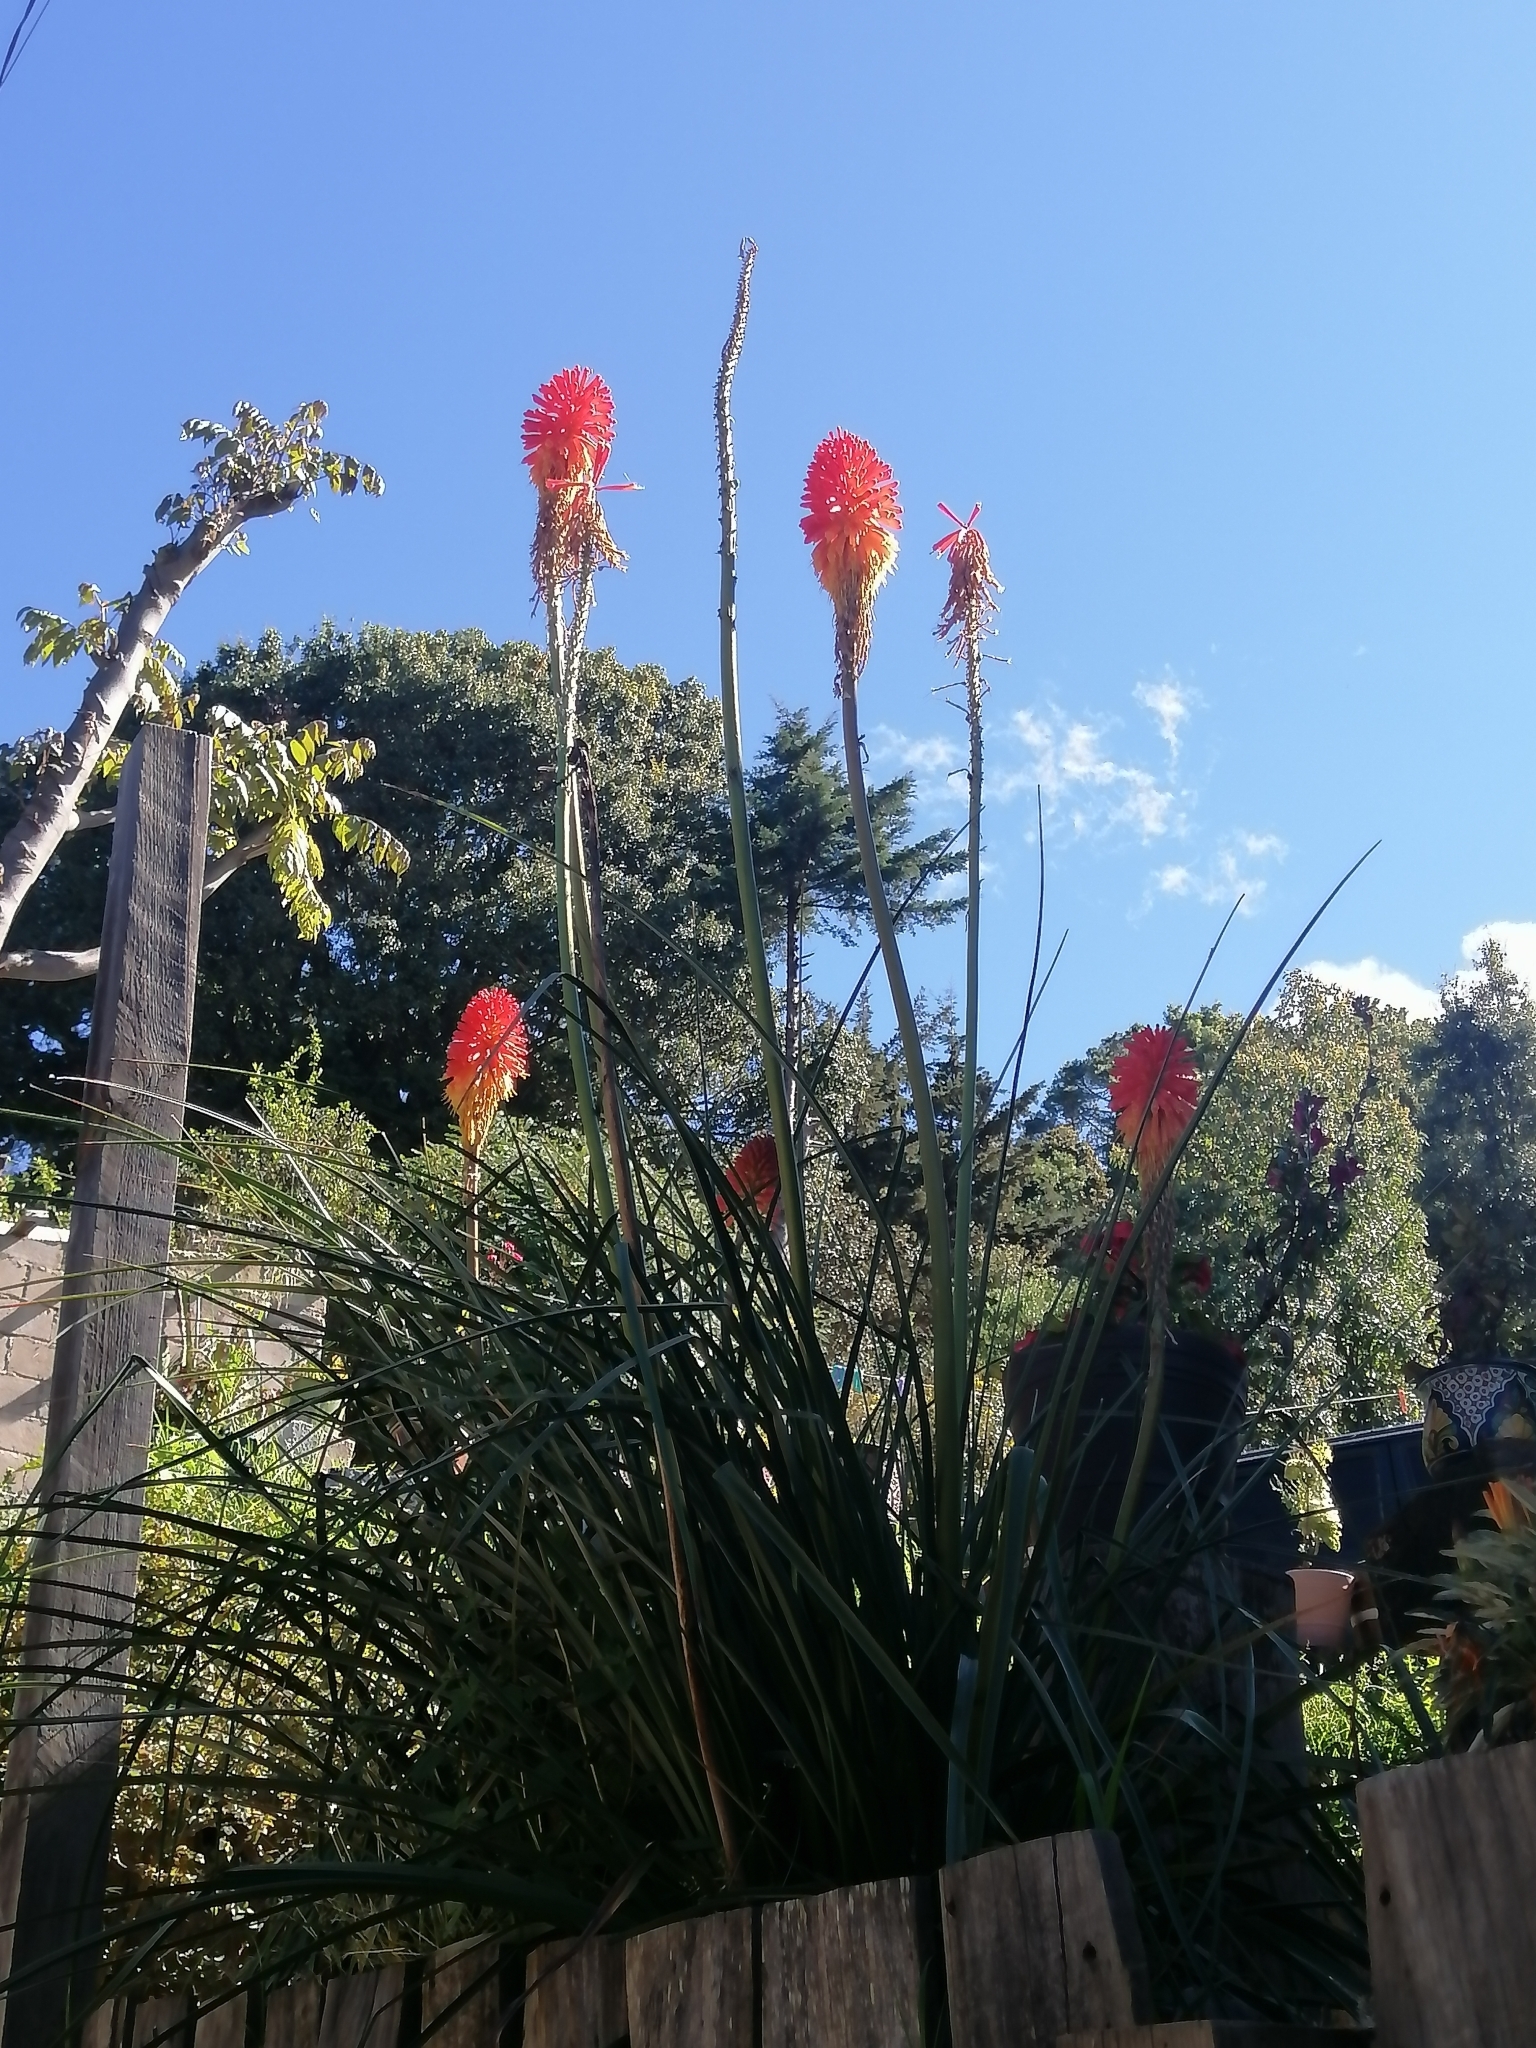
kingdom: Plantae
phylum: Tracheophyta
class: Liliopsida
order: Asparagales
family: Asphodelaceae
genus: Kniphofia
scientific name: Kniphofia uvaria
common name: Red-hot-poker
